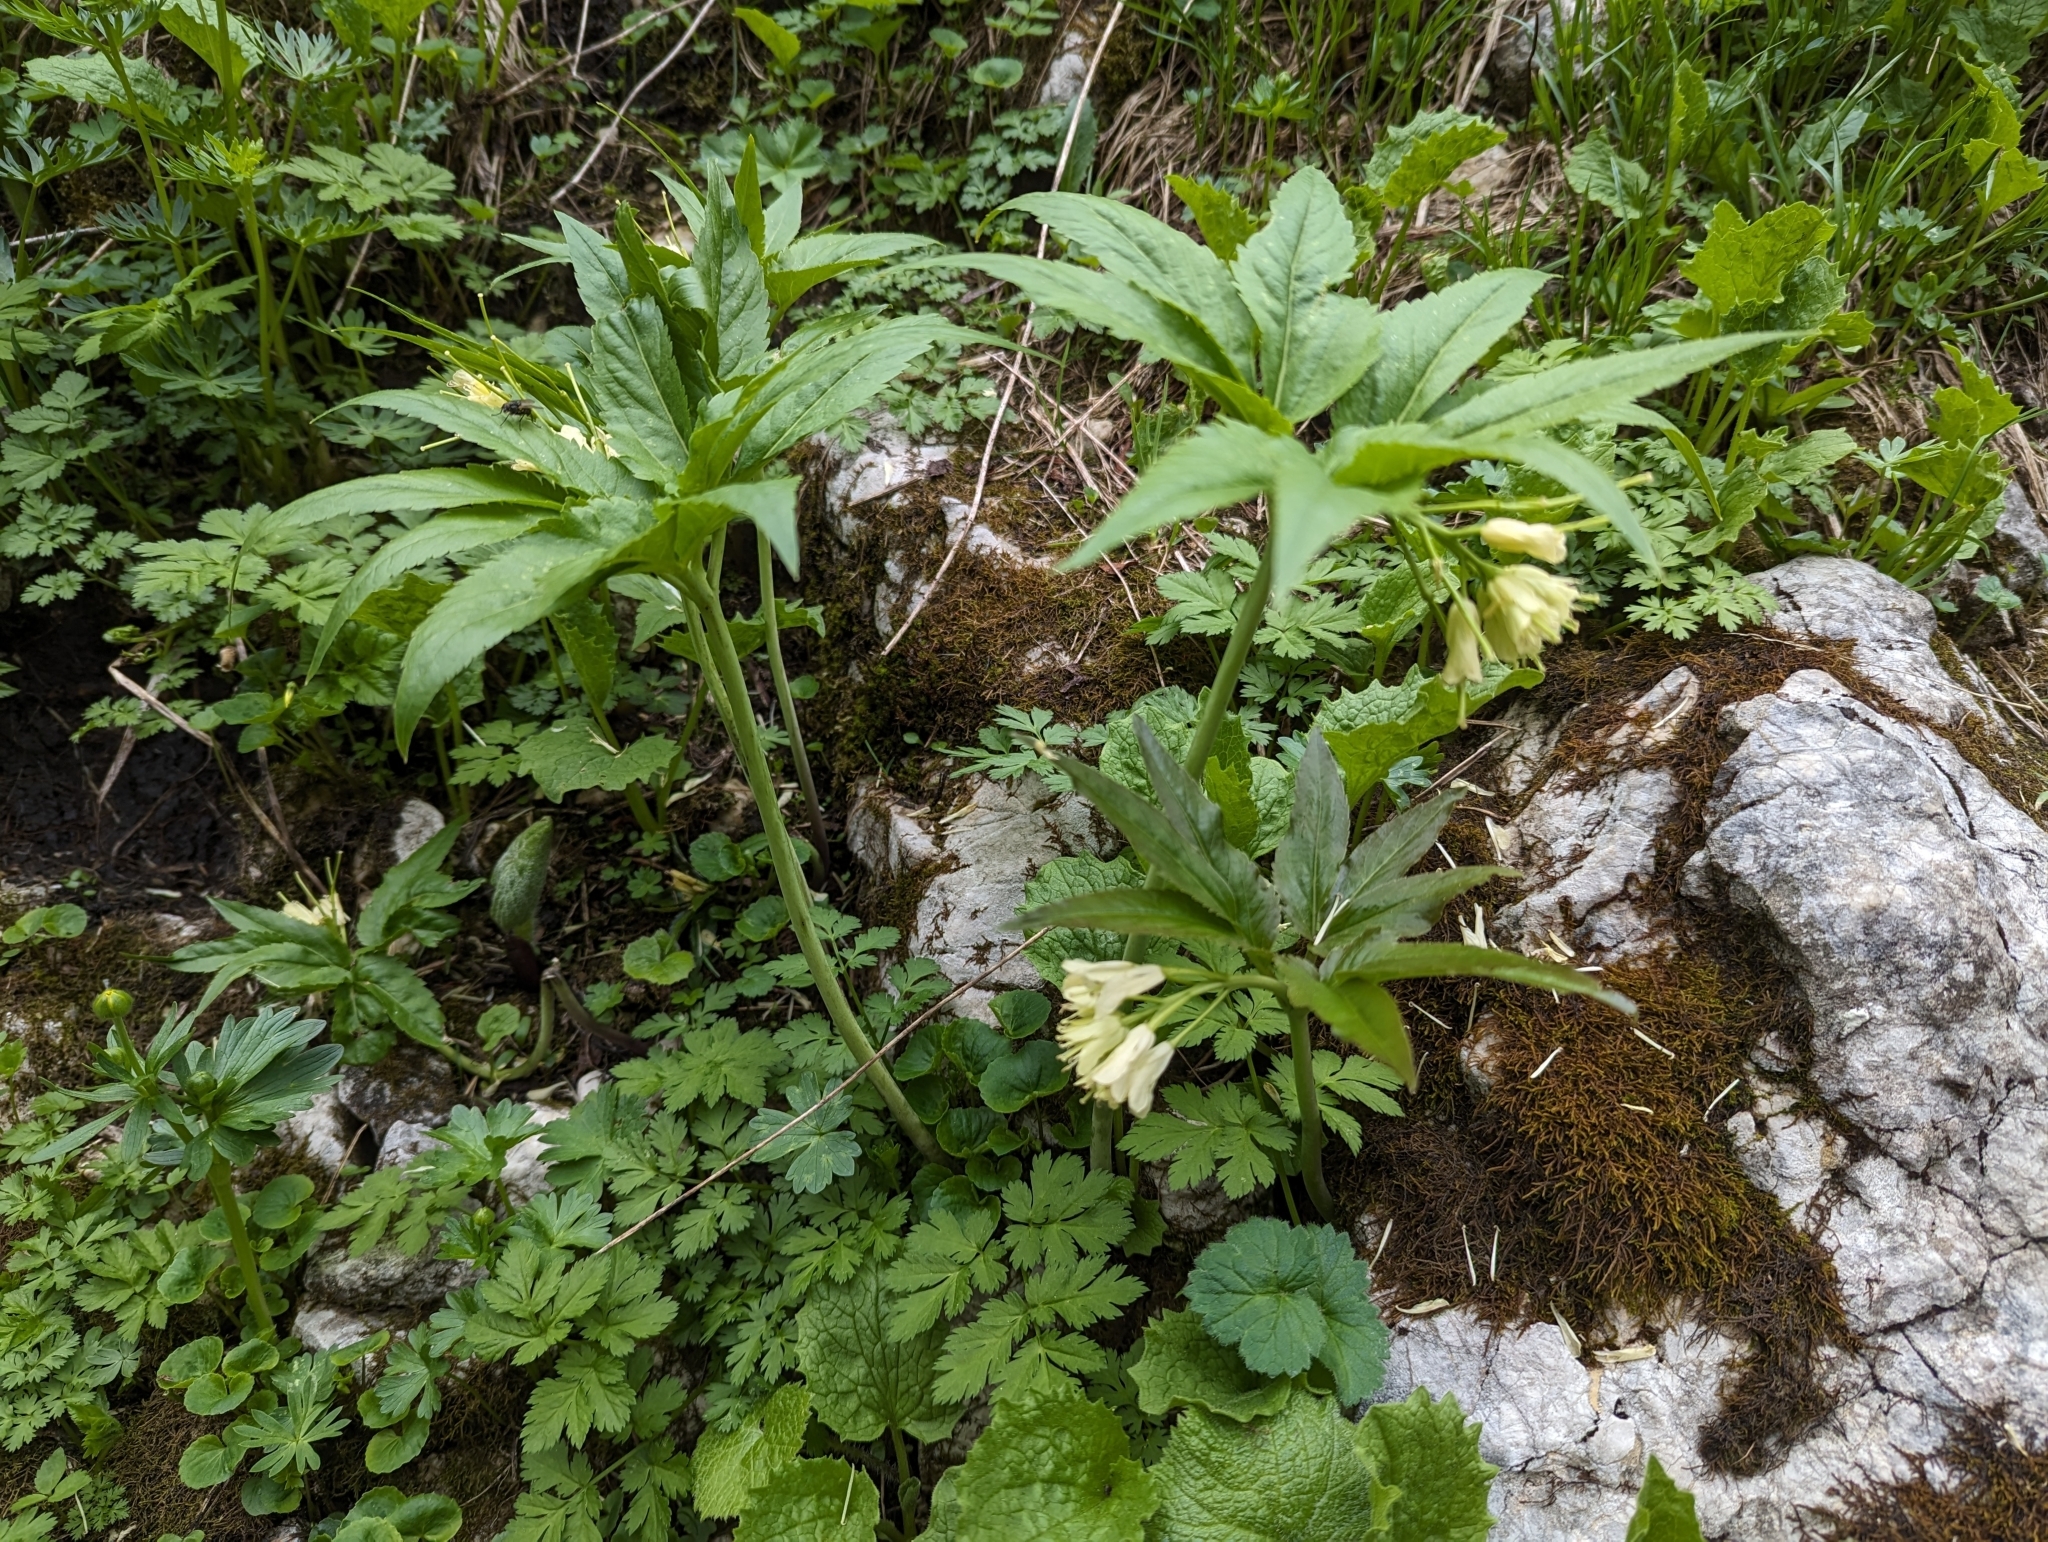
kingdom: Plantae
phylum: Tracheophyta
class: Magnoliopsida
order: Brassicales
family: Brassicaceae
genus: Cardamine
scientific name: Cardamine enneaphyllos
